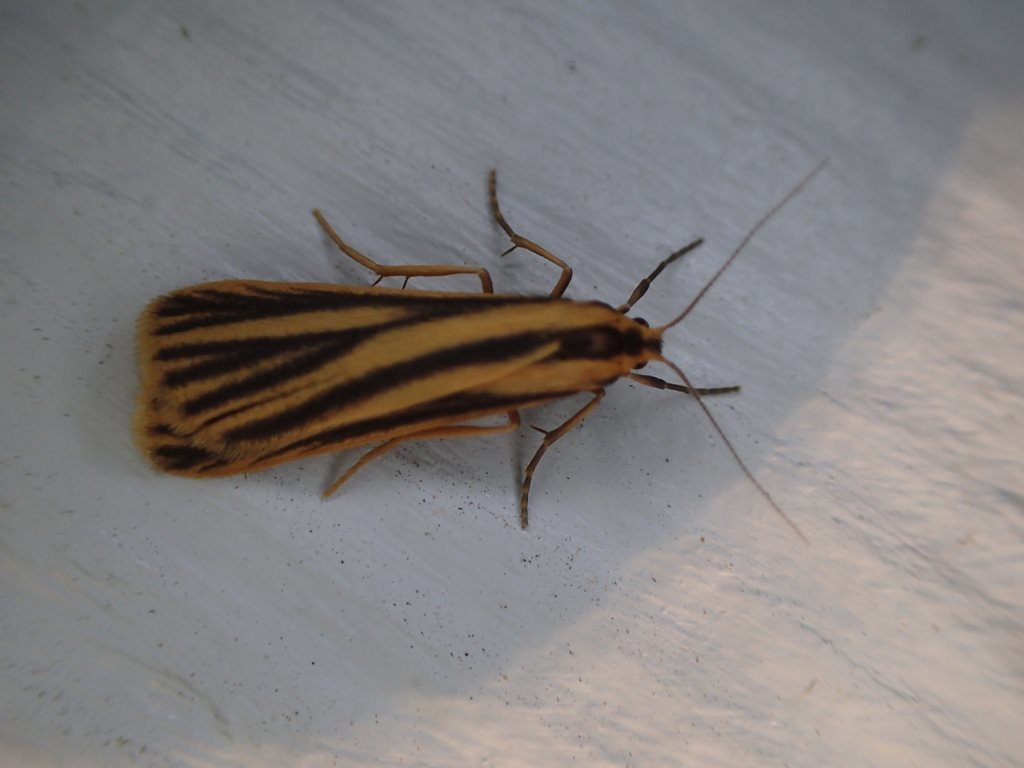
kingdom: Animalia
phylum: Arthropoda
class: Insecta
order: Lepidoptera
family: Erebidae
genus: Phaeophlebosia
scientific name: Phaeophlebosia furcifera
